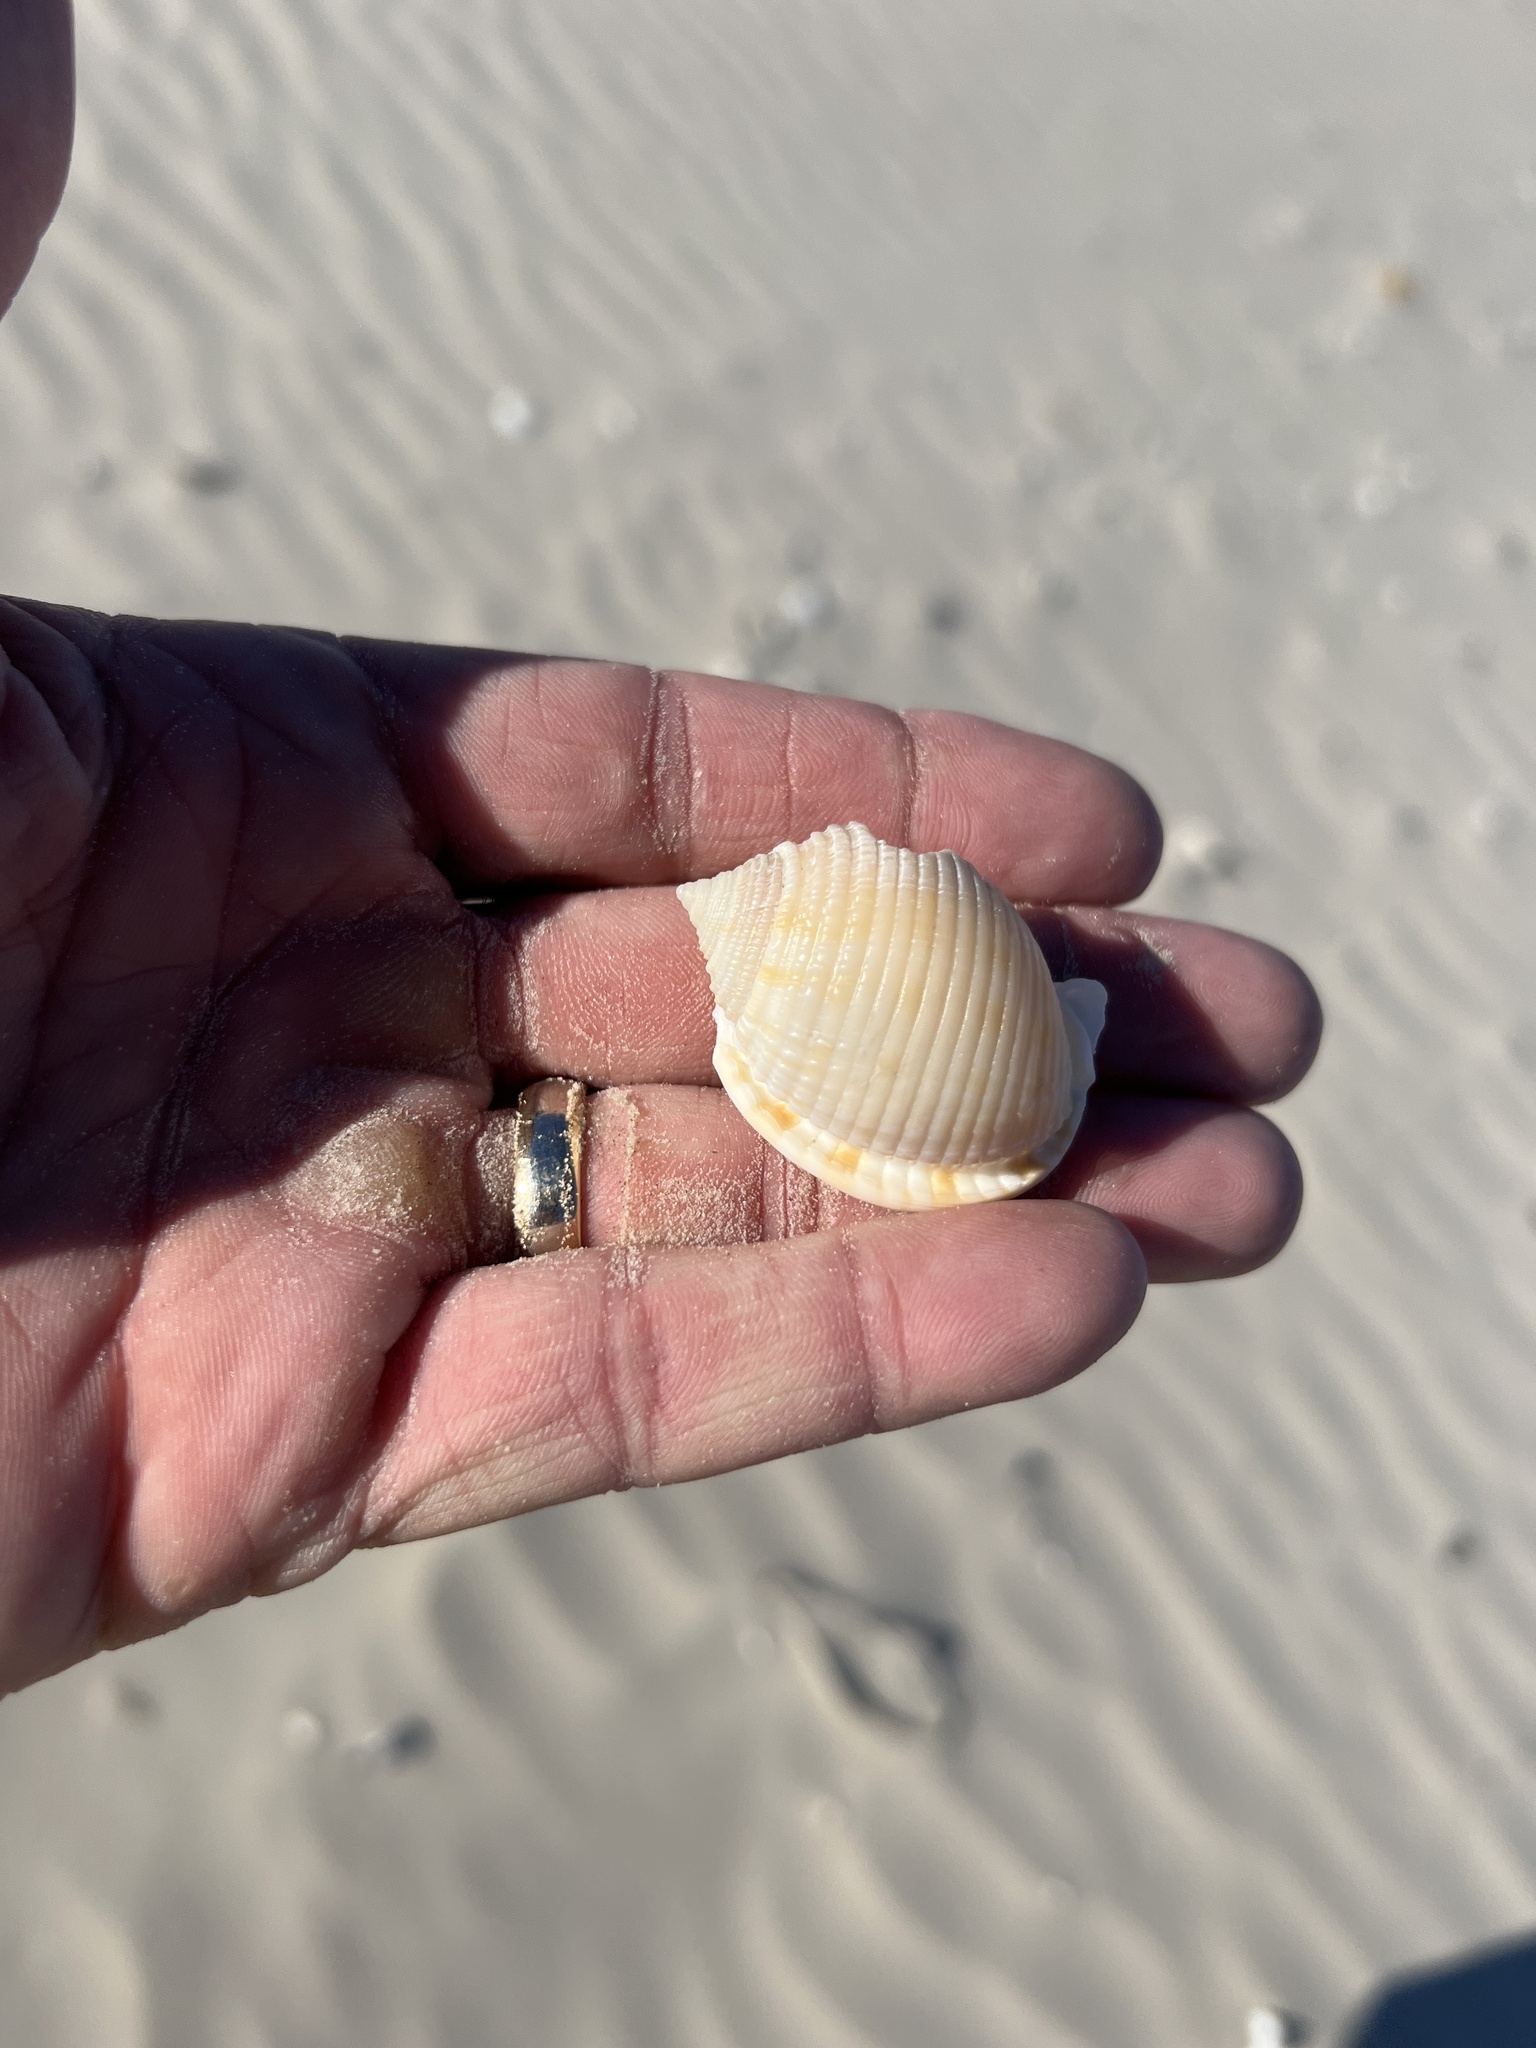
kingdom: Animalia
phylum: Mollusca
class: Gastropoda
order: Littorinimorpha
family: Cassidae
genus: Semicassis
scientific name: Semicassis granulata
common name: Scotch bonnet
